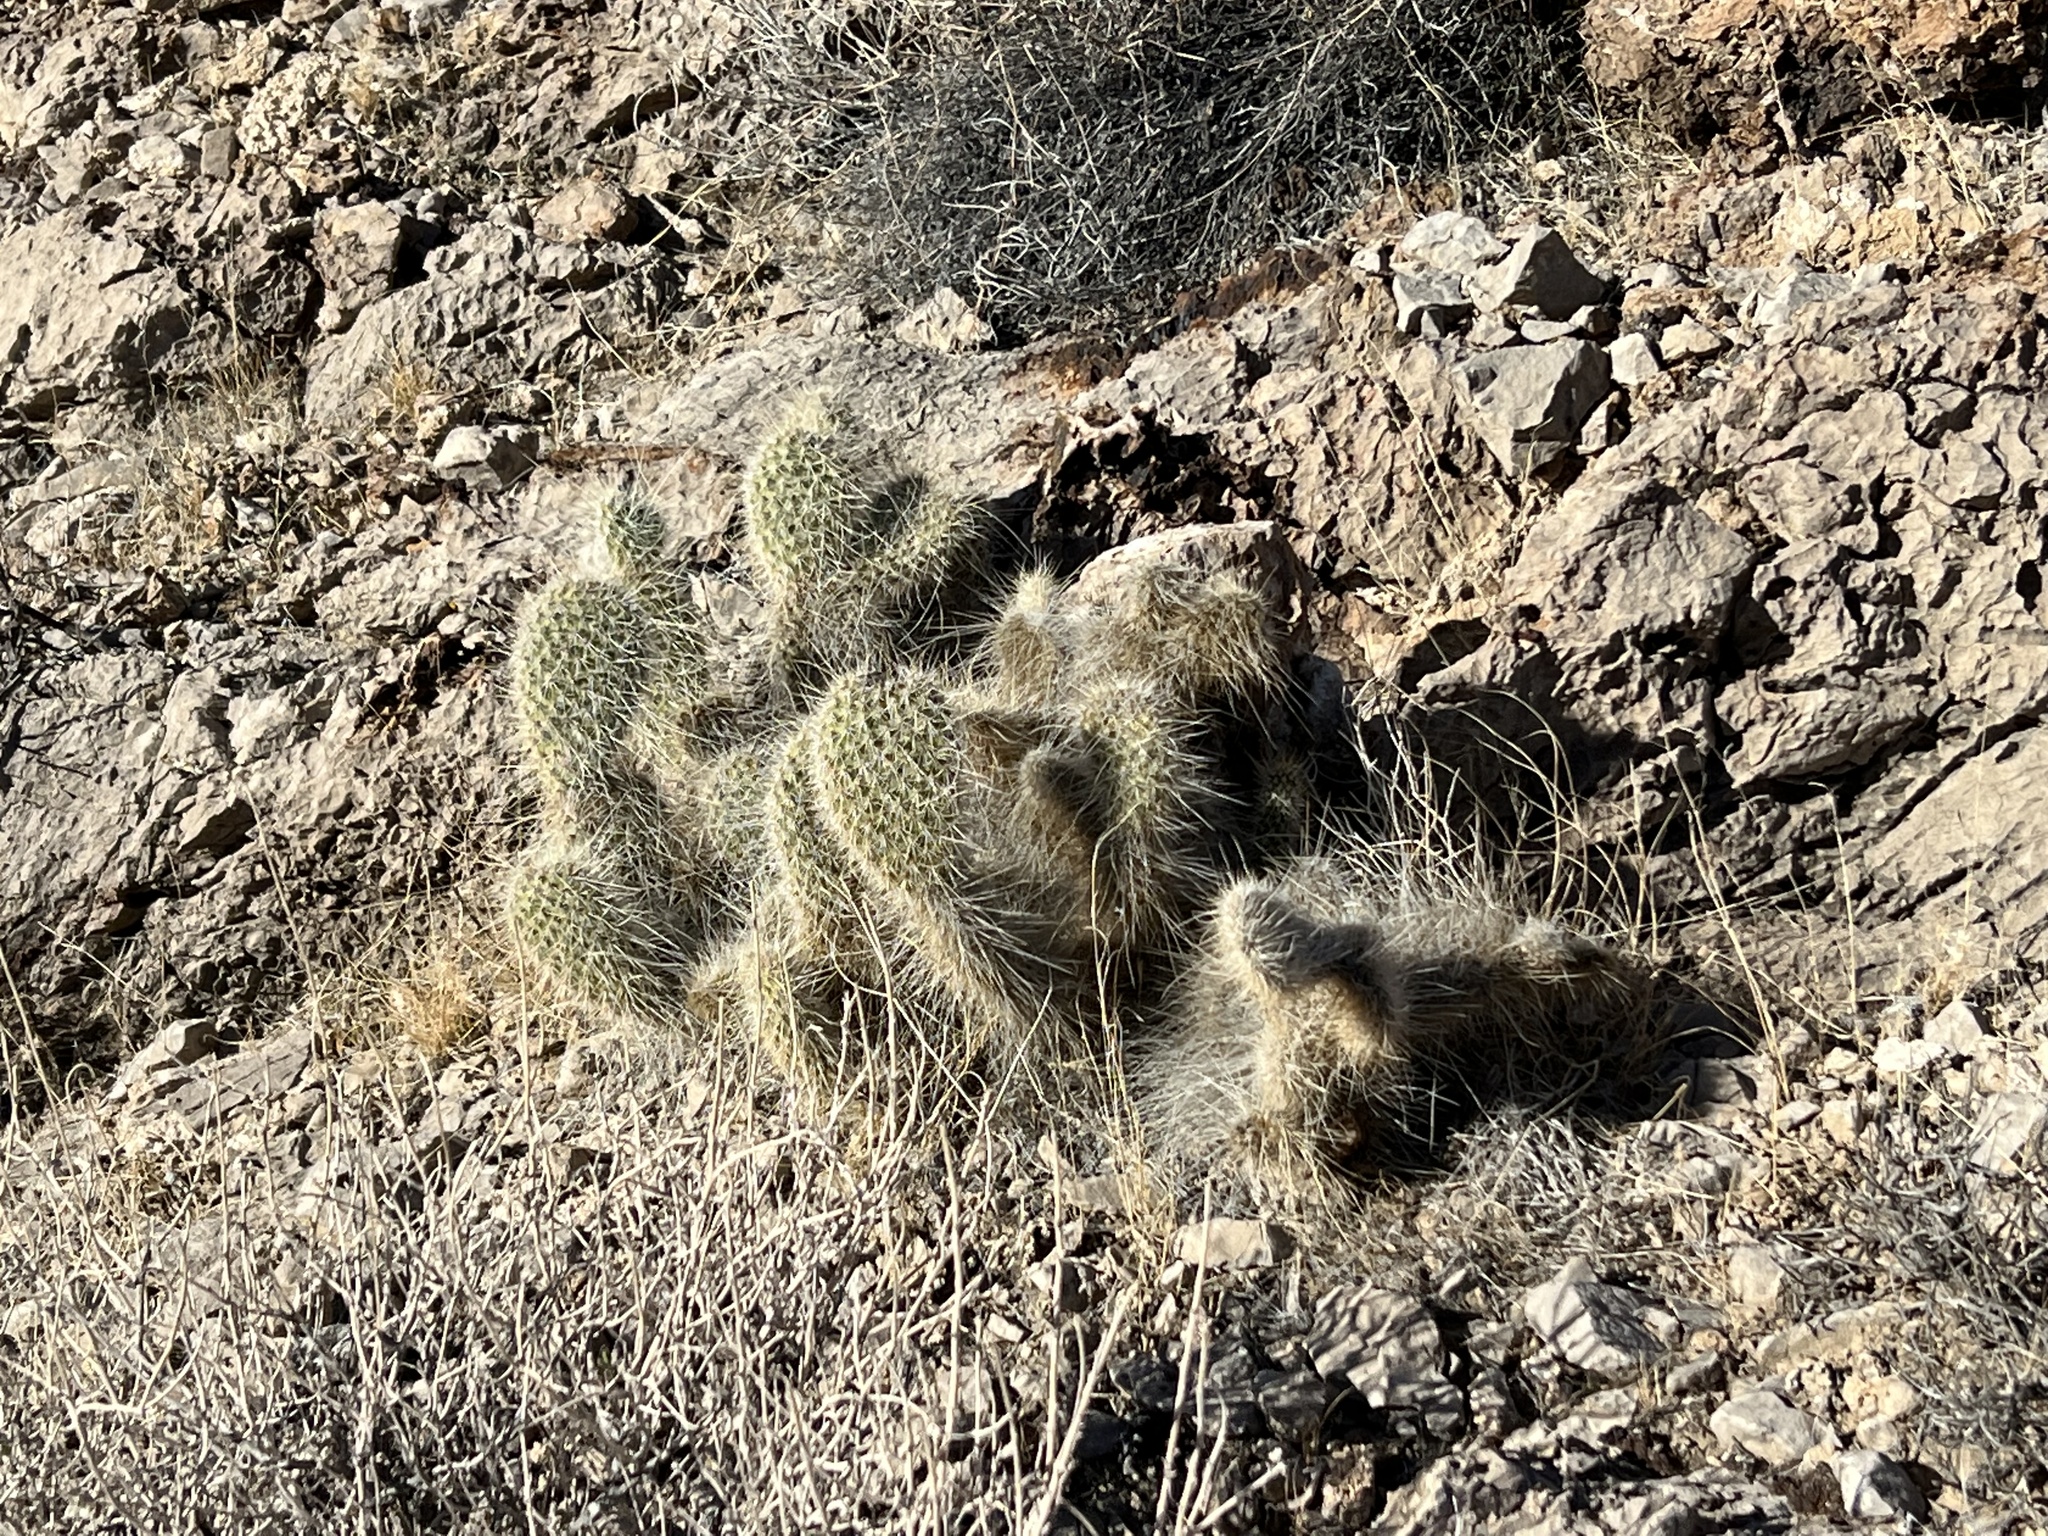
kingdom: Plantae
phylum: Tracheophyta
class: Magnoliopsida
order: Caryophyllales
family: Cactaceae
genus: Opuntia
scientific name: Opuntia polyacantha
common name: Plains prickly-pear
